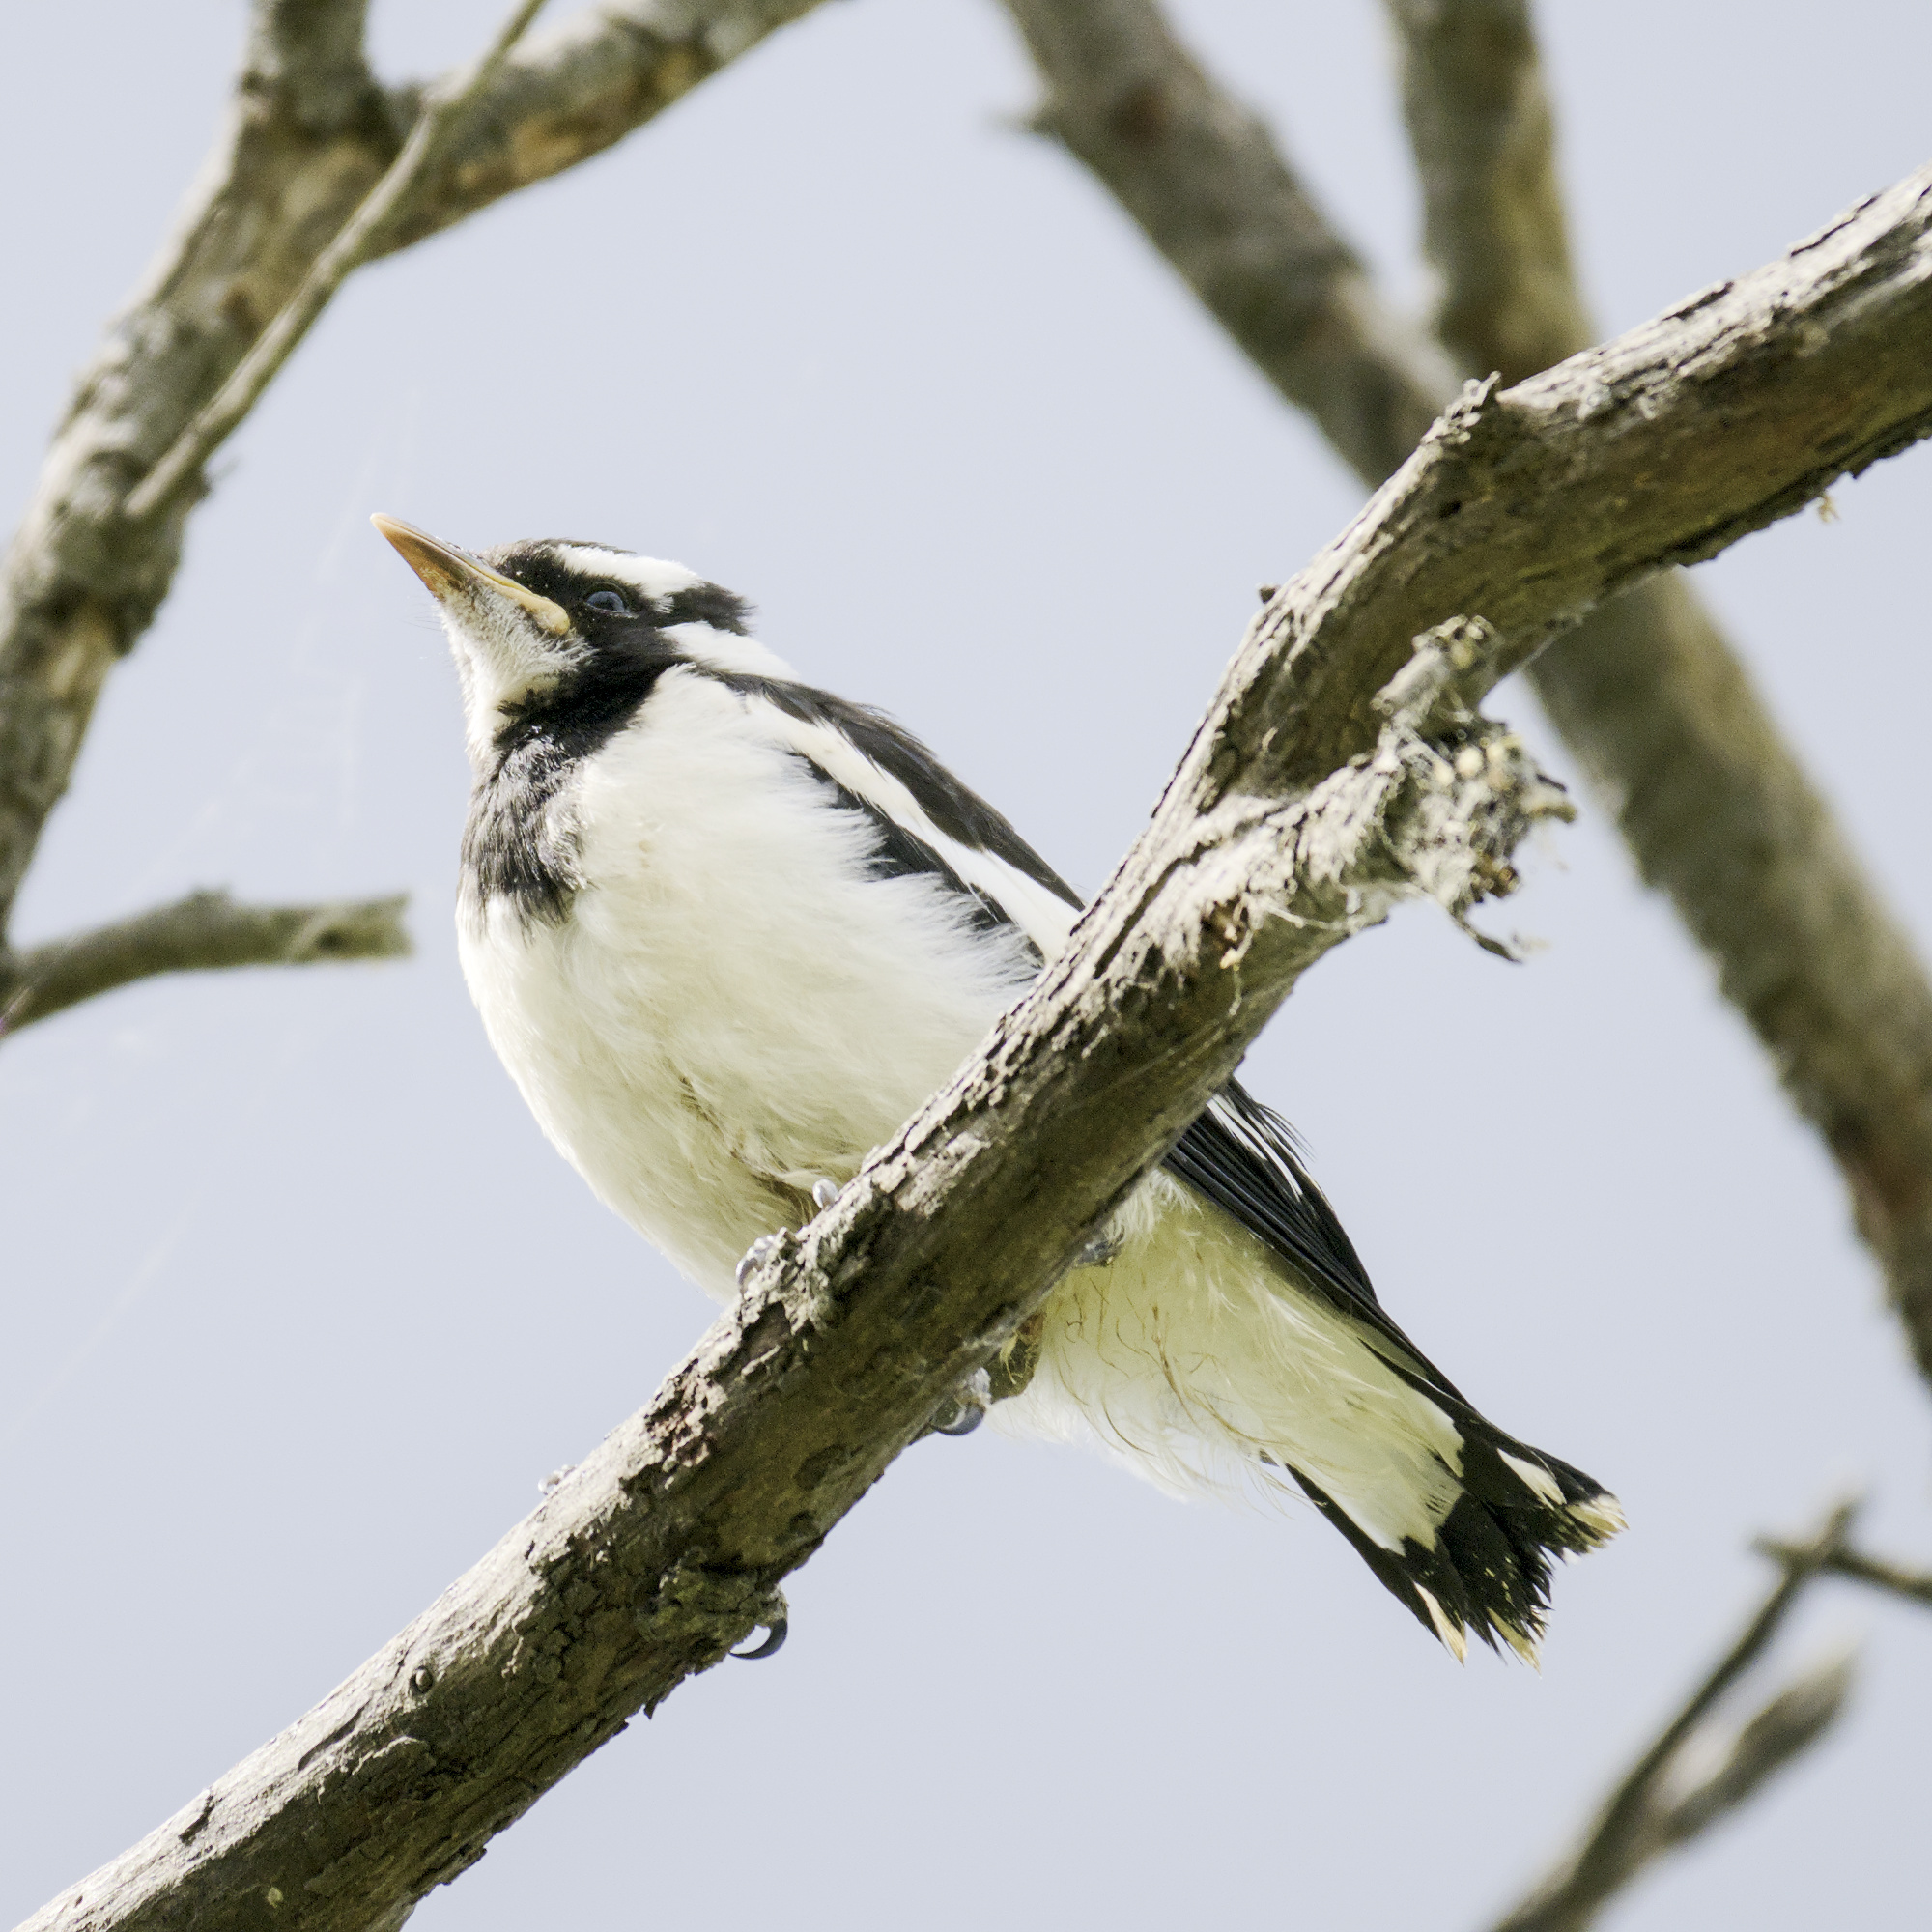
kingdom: Animalia
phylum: Chordata
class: Aves
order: Passeriformes
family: Monarchidae
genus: Grallina
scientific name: Grallina cyanoleuca
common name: Magpie-lark
